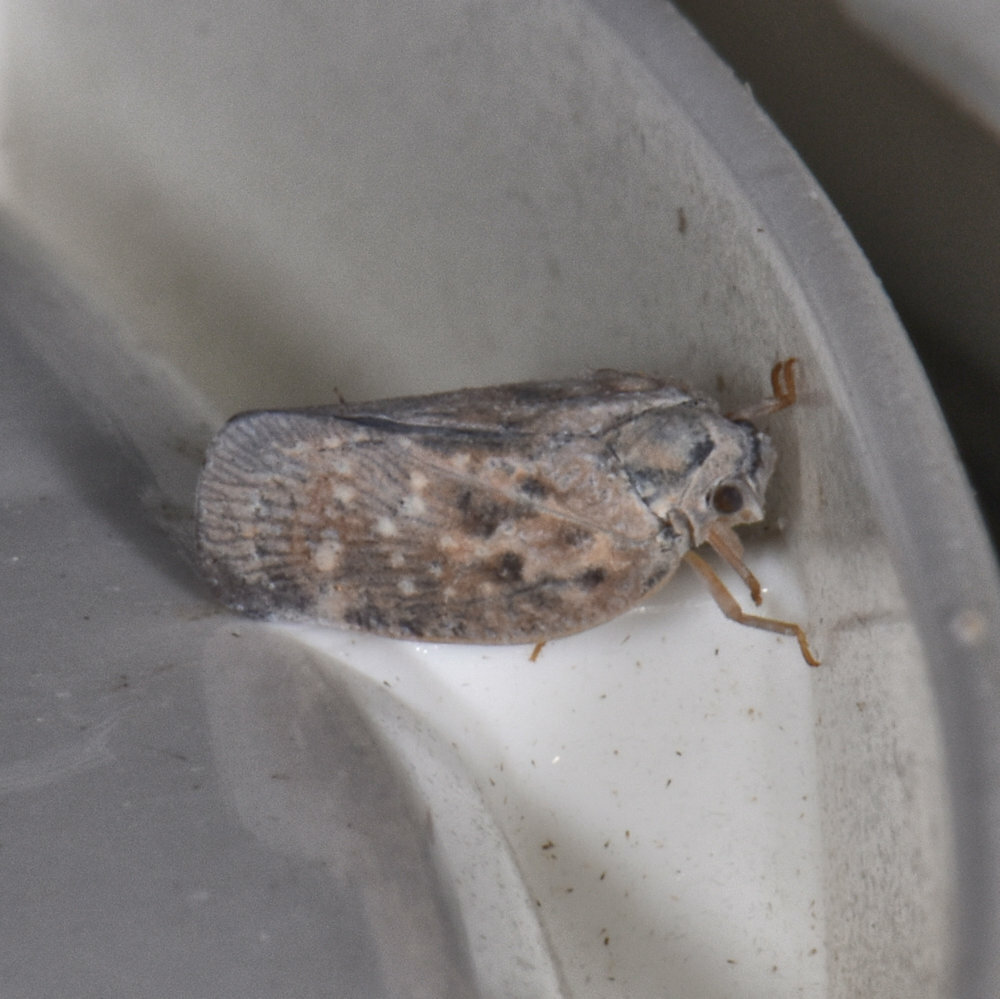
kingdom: Animalia
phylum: Arthropoda
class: Insecta
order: Hemiptera
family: Flatidae
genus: Metcalfa
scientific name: Metcalfa pruinosa
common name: Citrus flatid planthopper
